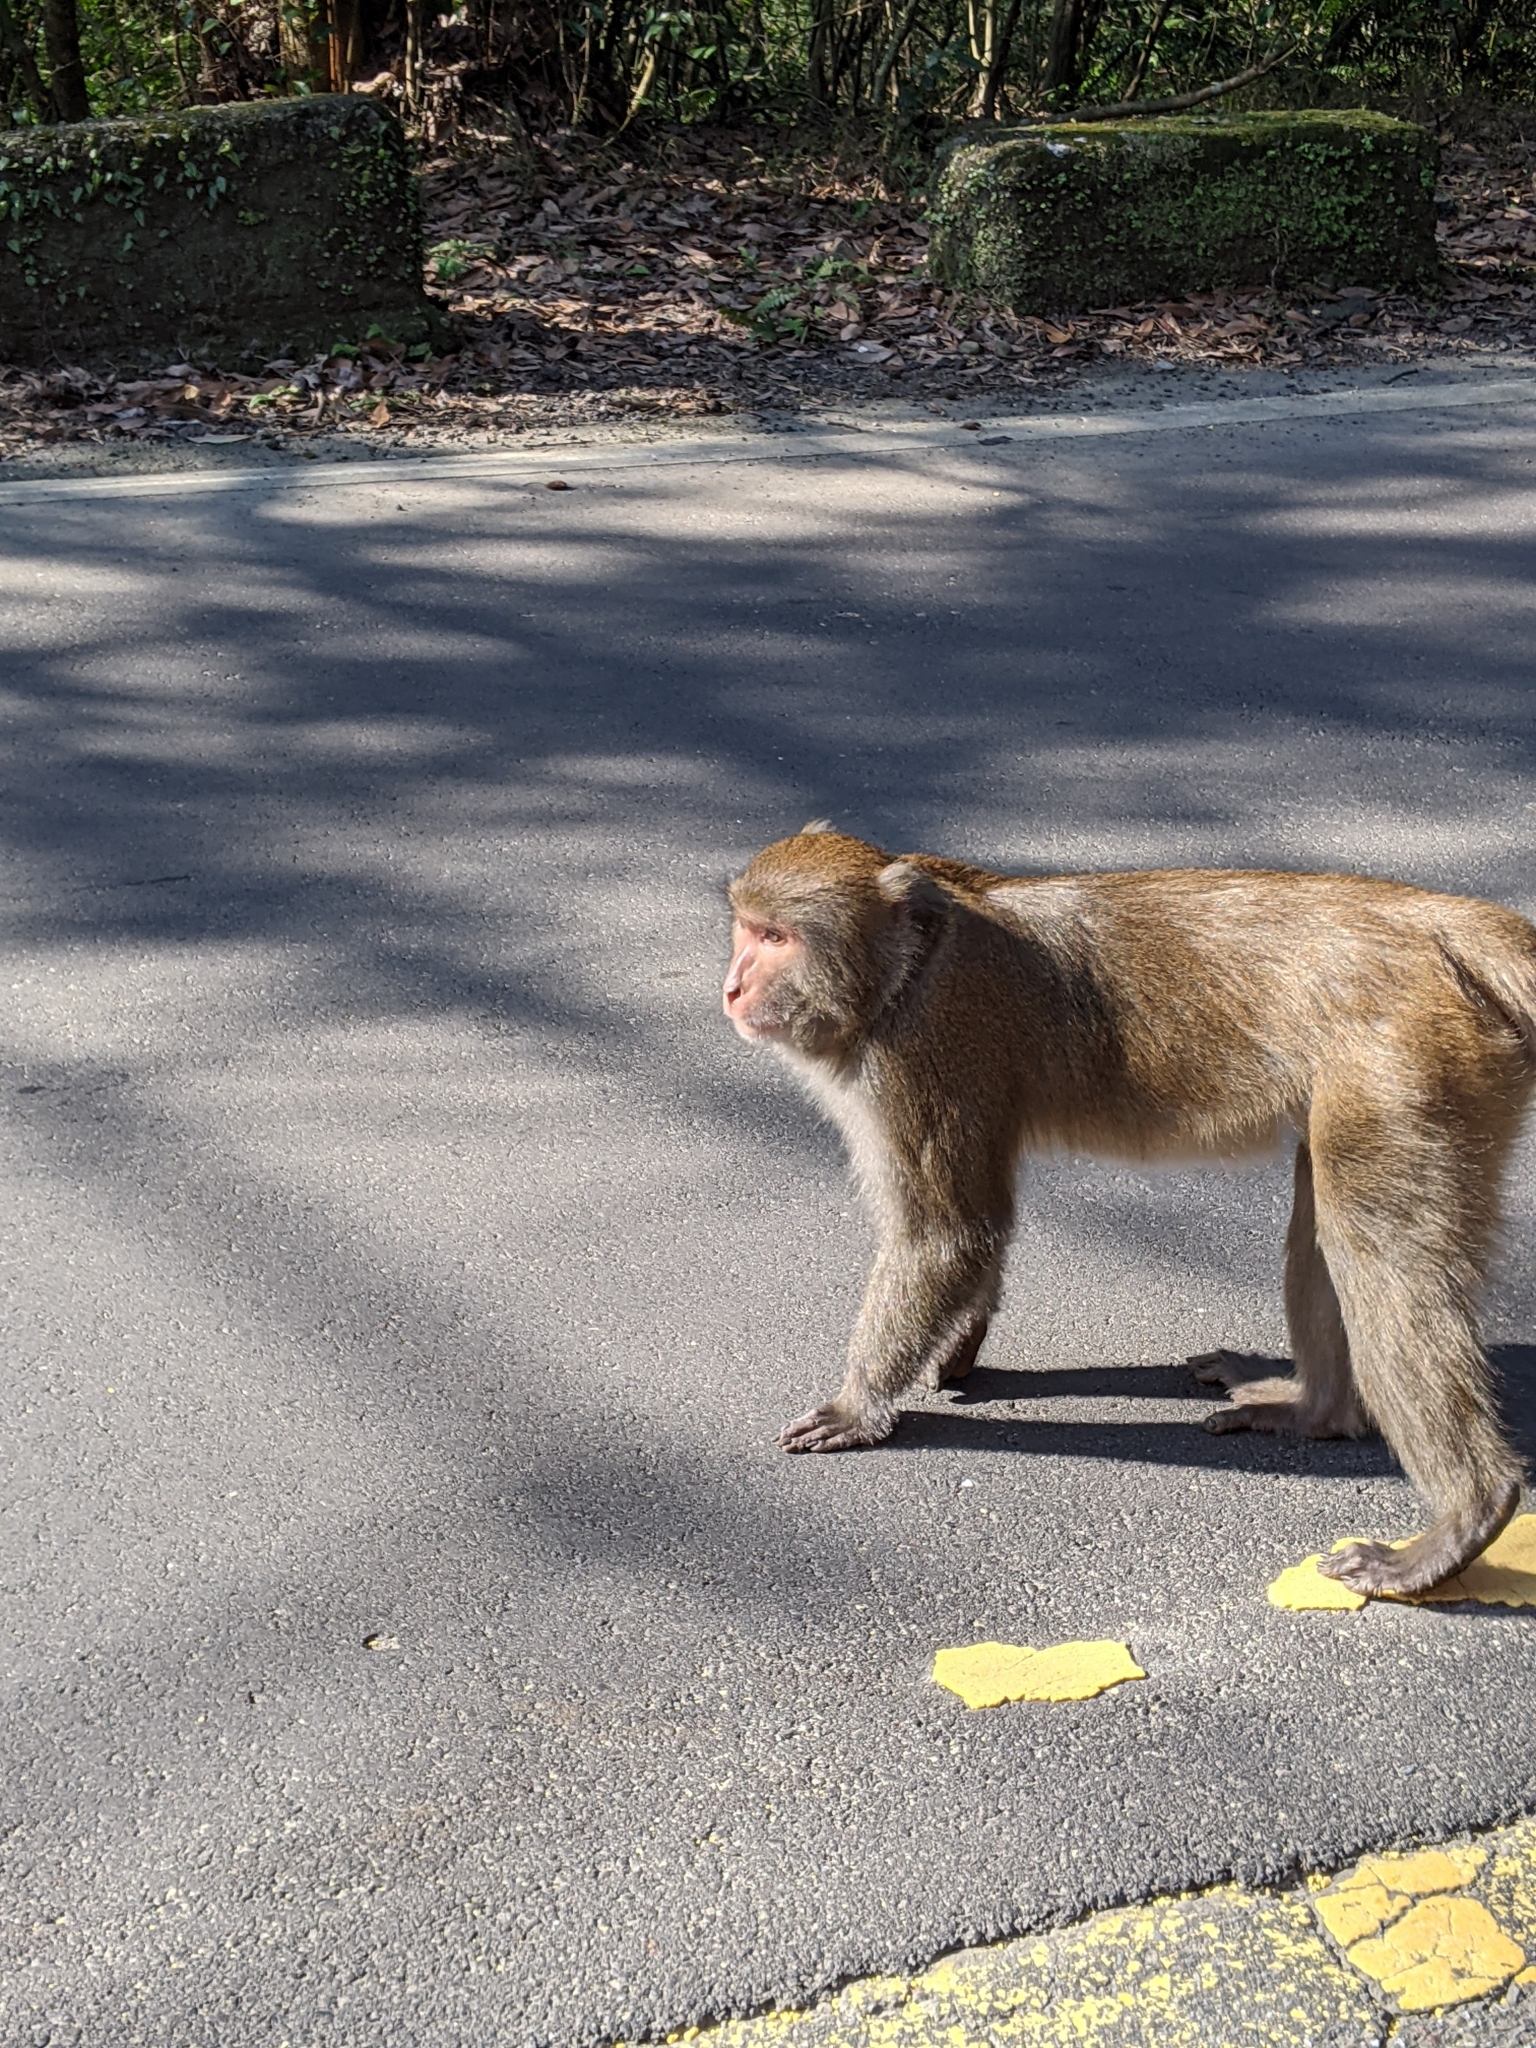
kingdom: Animalia
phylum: Chordata
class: Mammalia
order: Primates
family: Cercopithecidae
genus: Macaca
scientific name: Macaca cyclopis
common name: Formosan rock macaque
